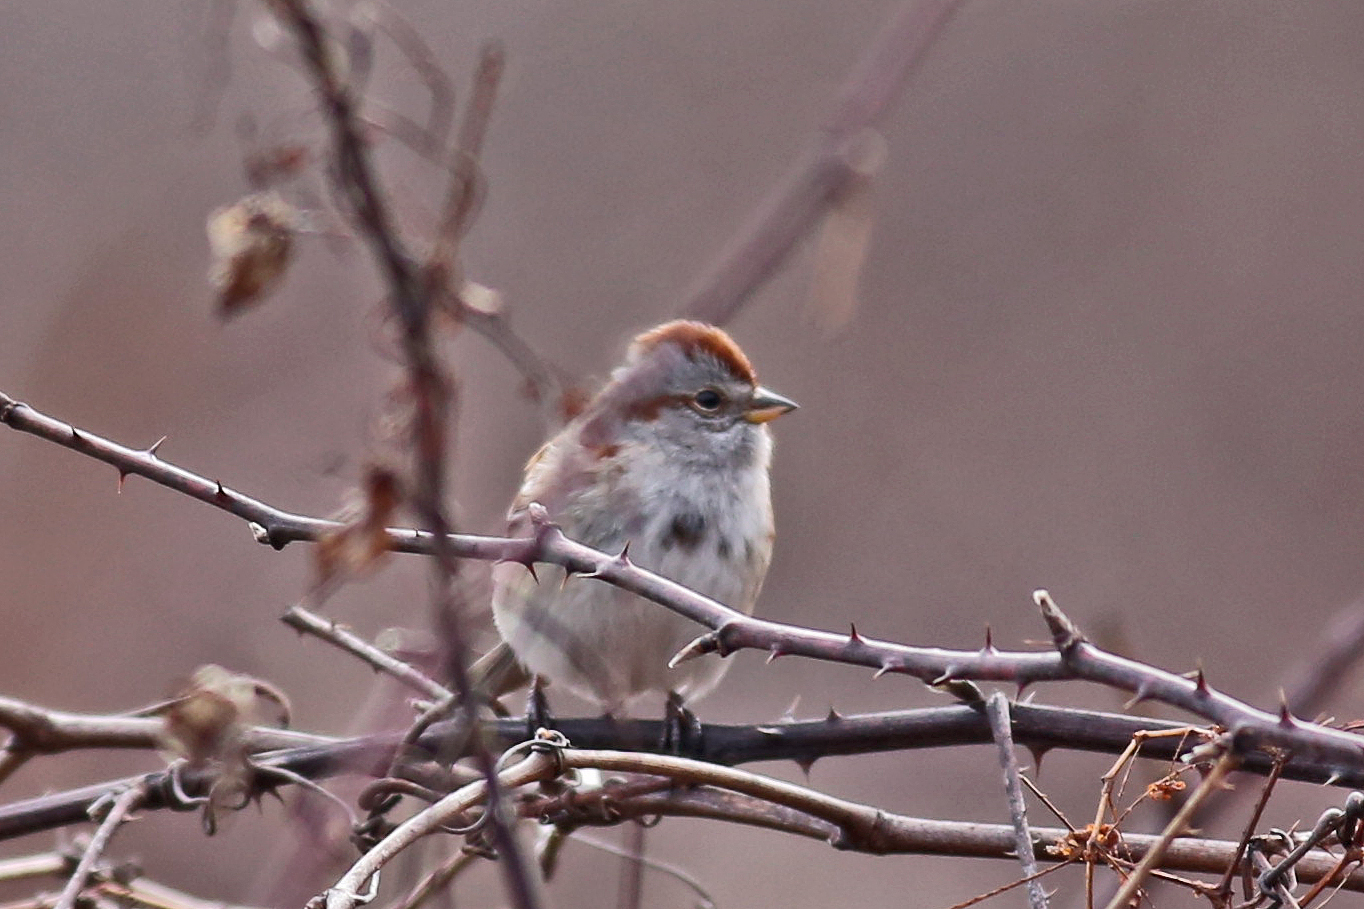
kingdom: Animalia
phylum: Chordata
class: Aves
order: Passeriformes
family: Passerellidae
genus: Spizelloides
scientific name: Spizelloides arborea
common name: American tree sparrow
